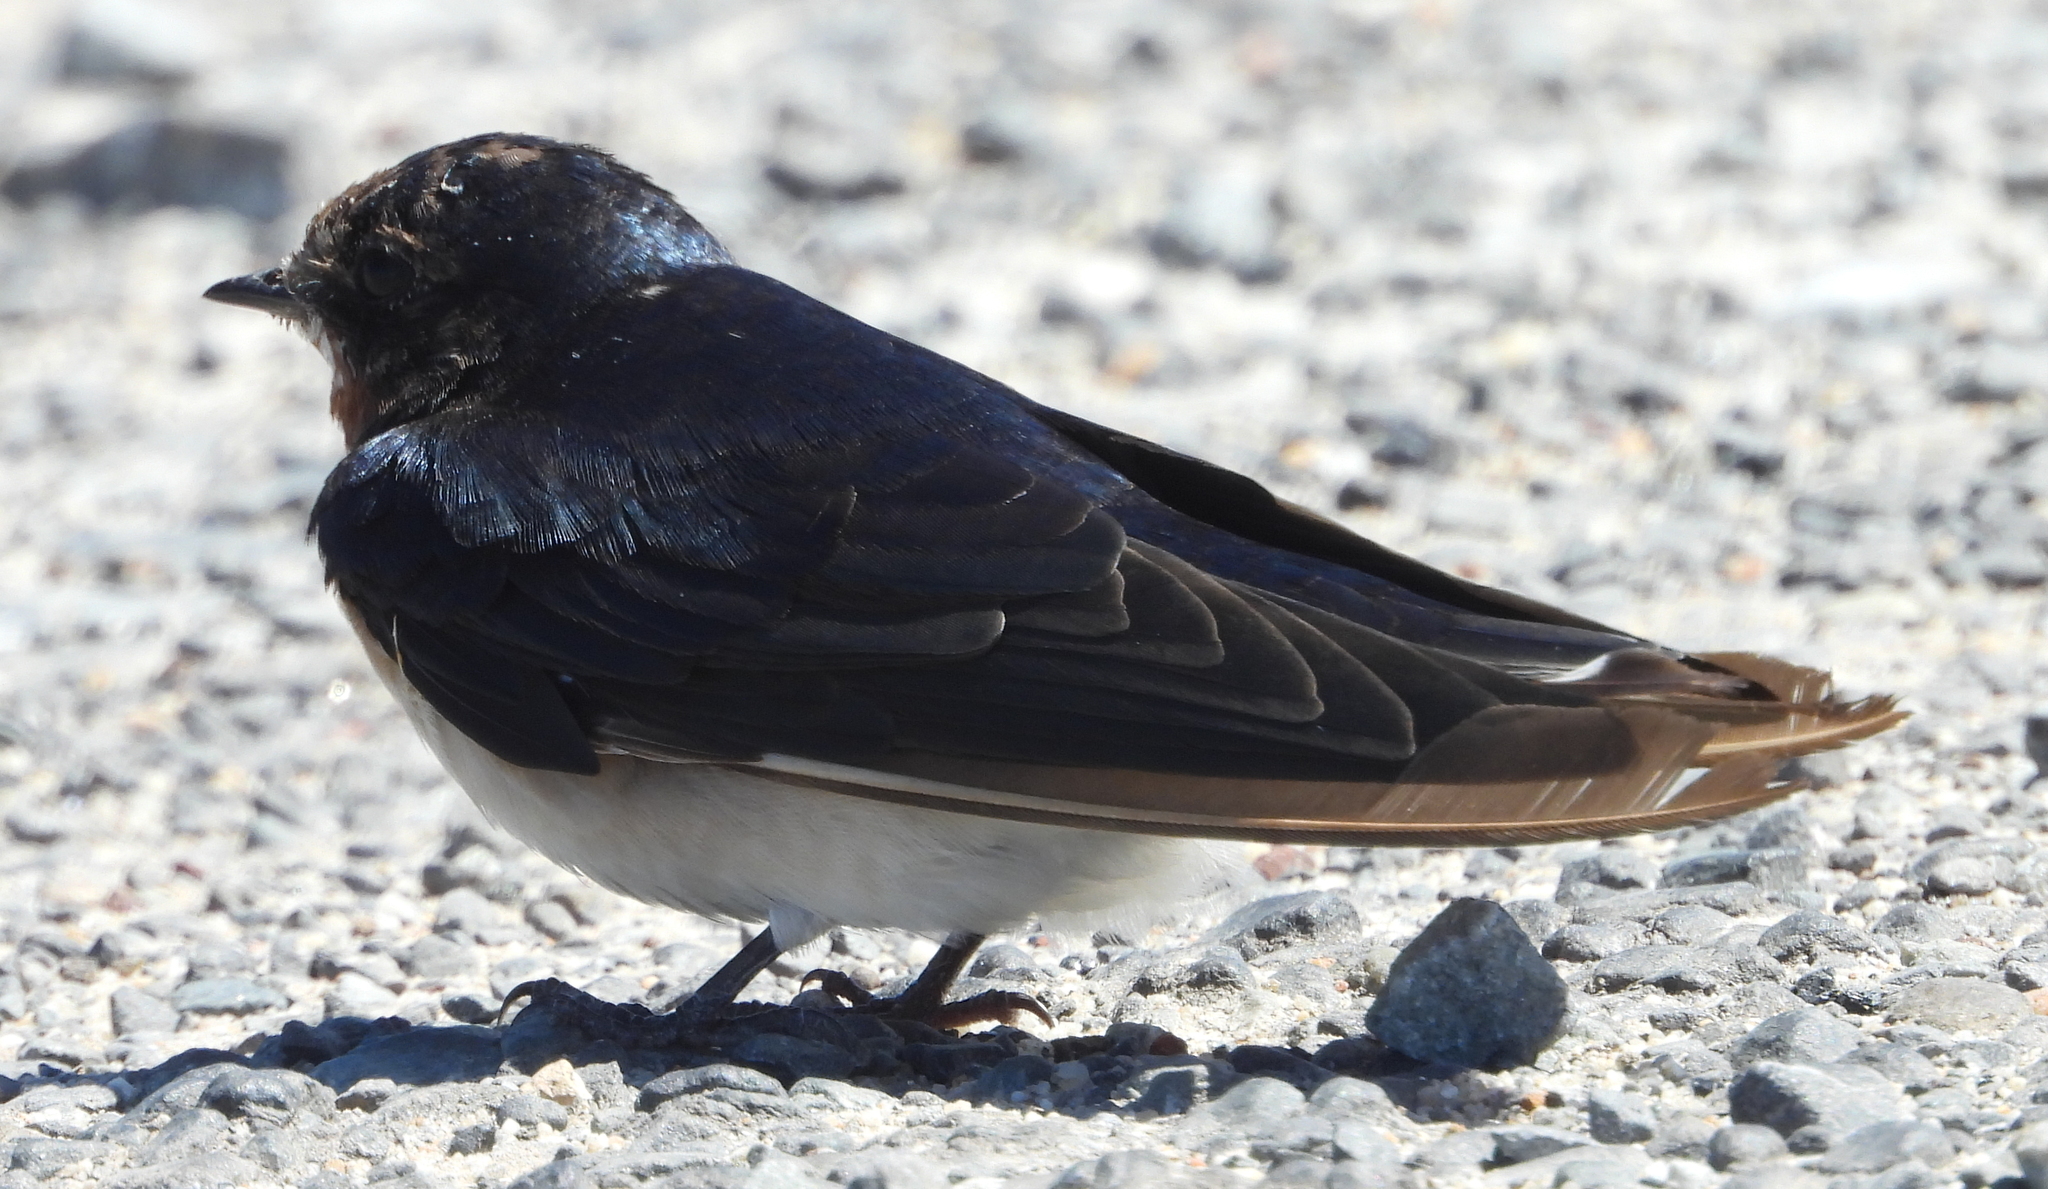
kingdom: Animalia
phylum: Chordata
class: Aves
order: Passeriformes
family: Hirundinidae
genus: Hirundo
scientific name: Hirundo rustica
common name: Barn swallow
